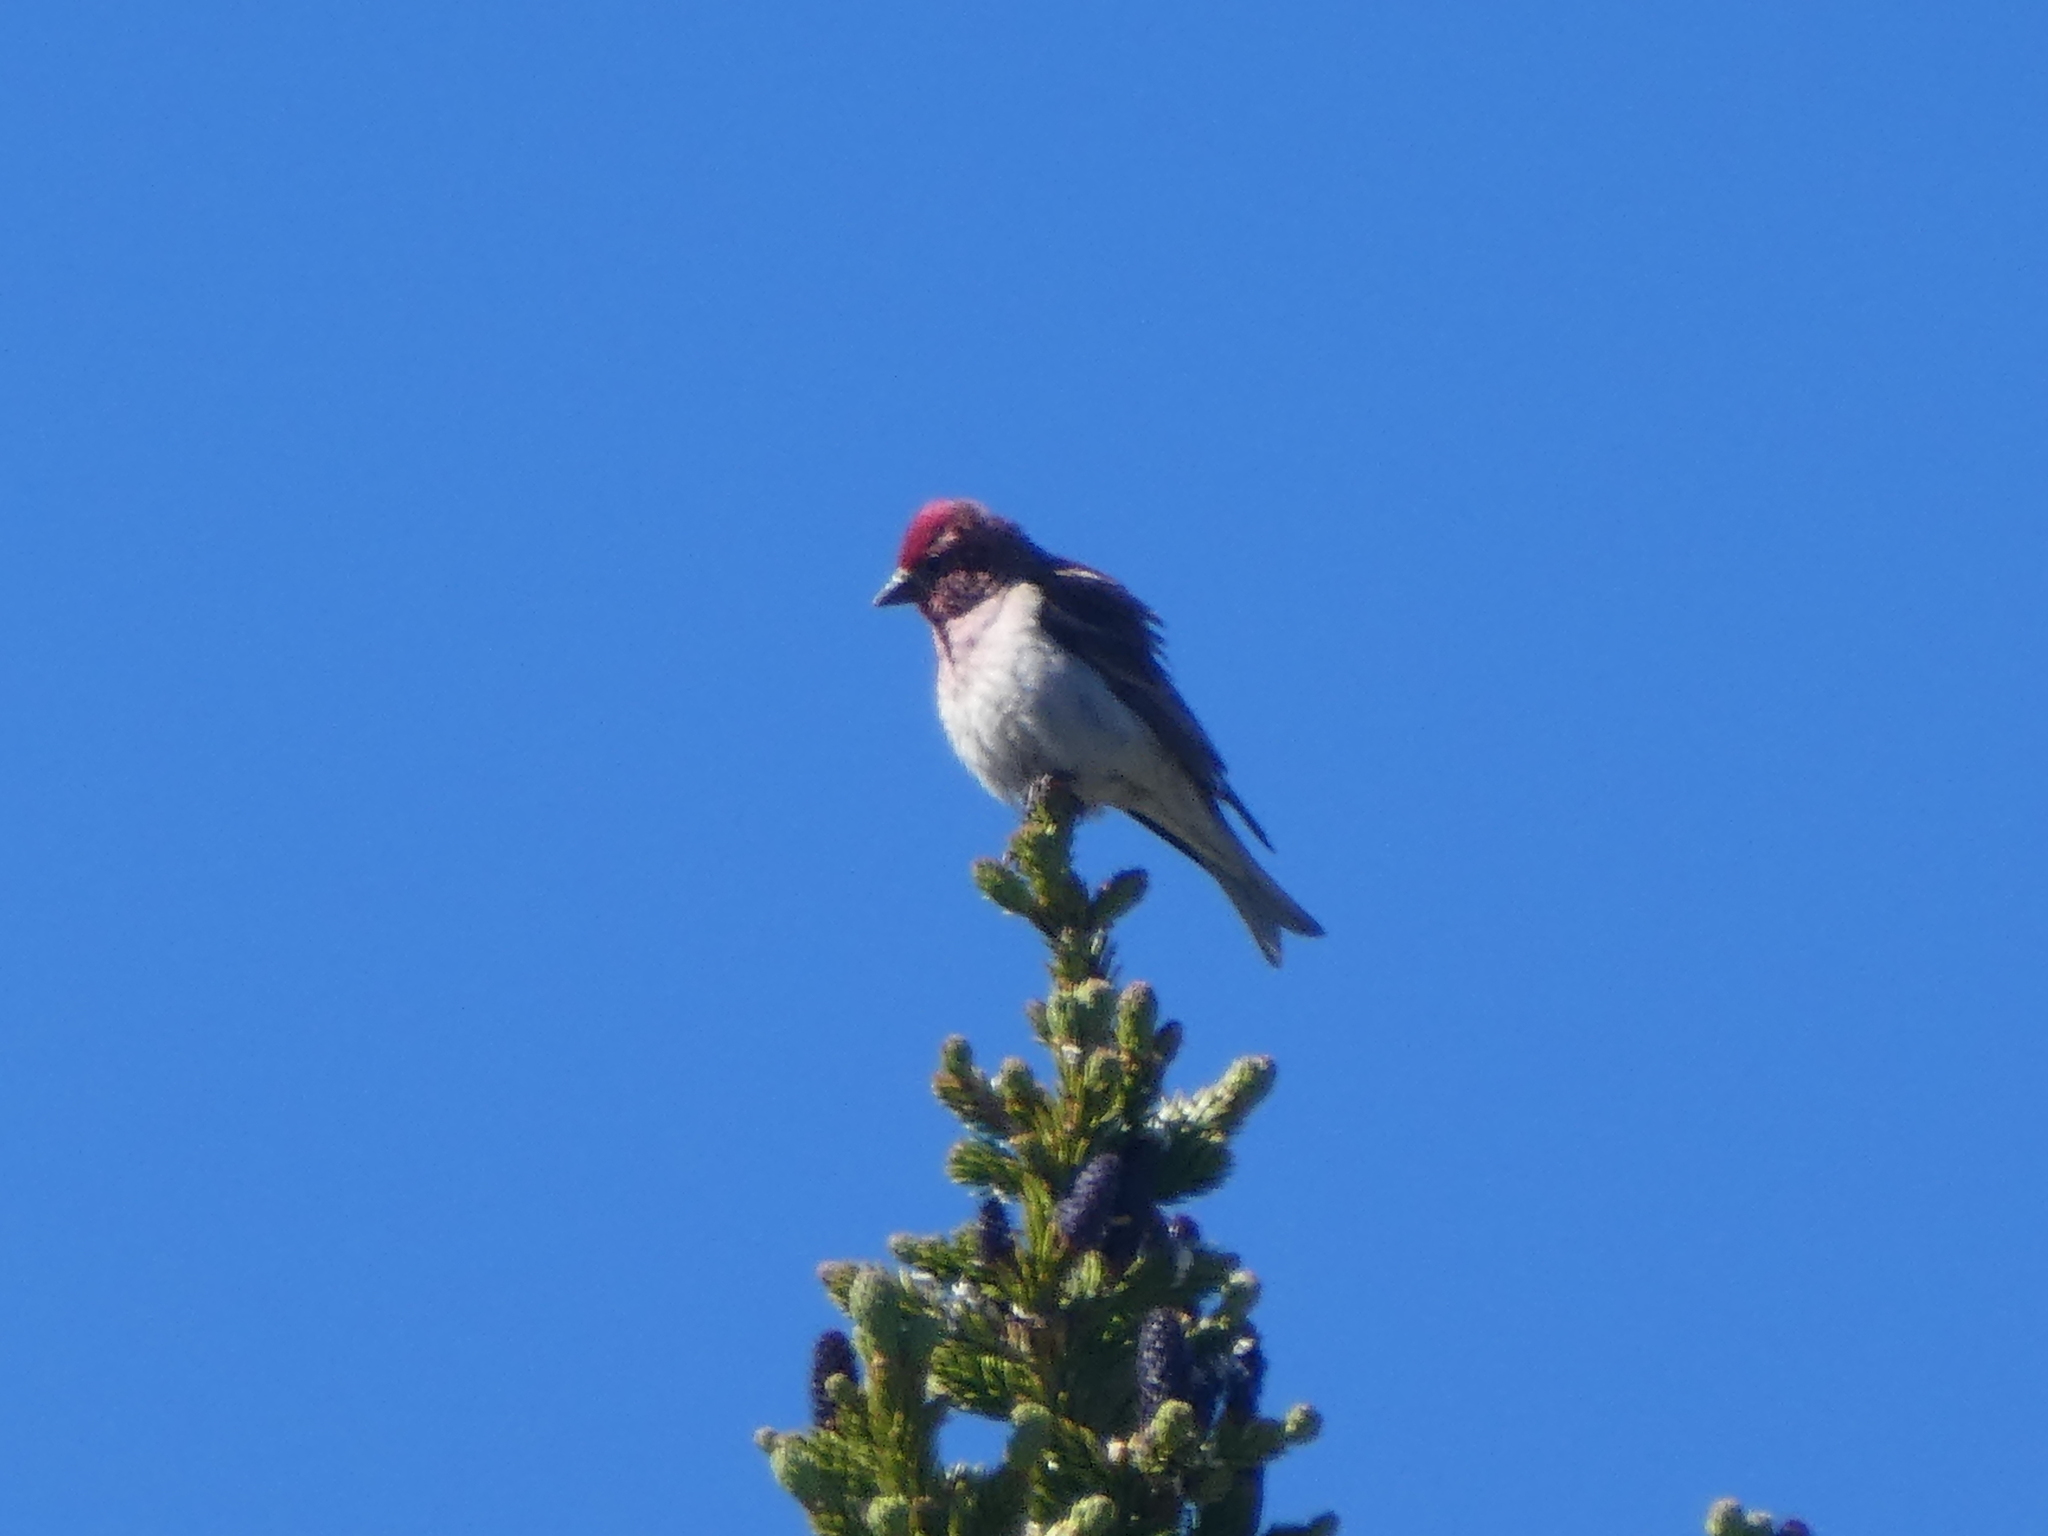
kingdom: Animalia
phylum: Chordata
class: Aves
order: Passeriformes
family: Fringillidae
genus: Haemorhous
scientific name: Haemorhous cassinii
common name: Cassin's finch
